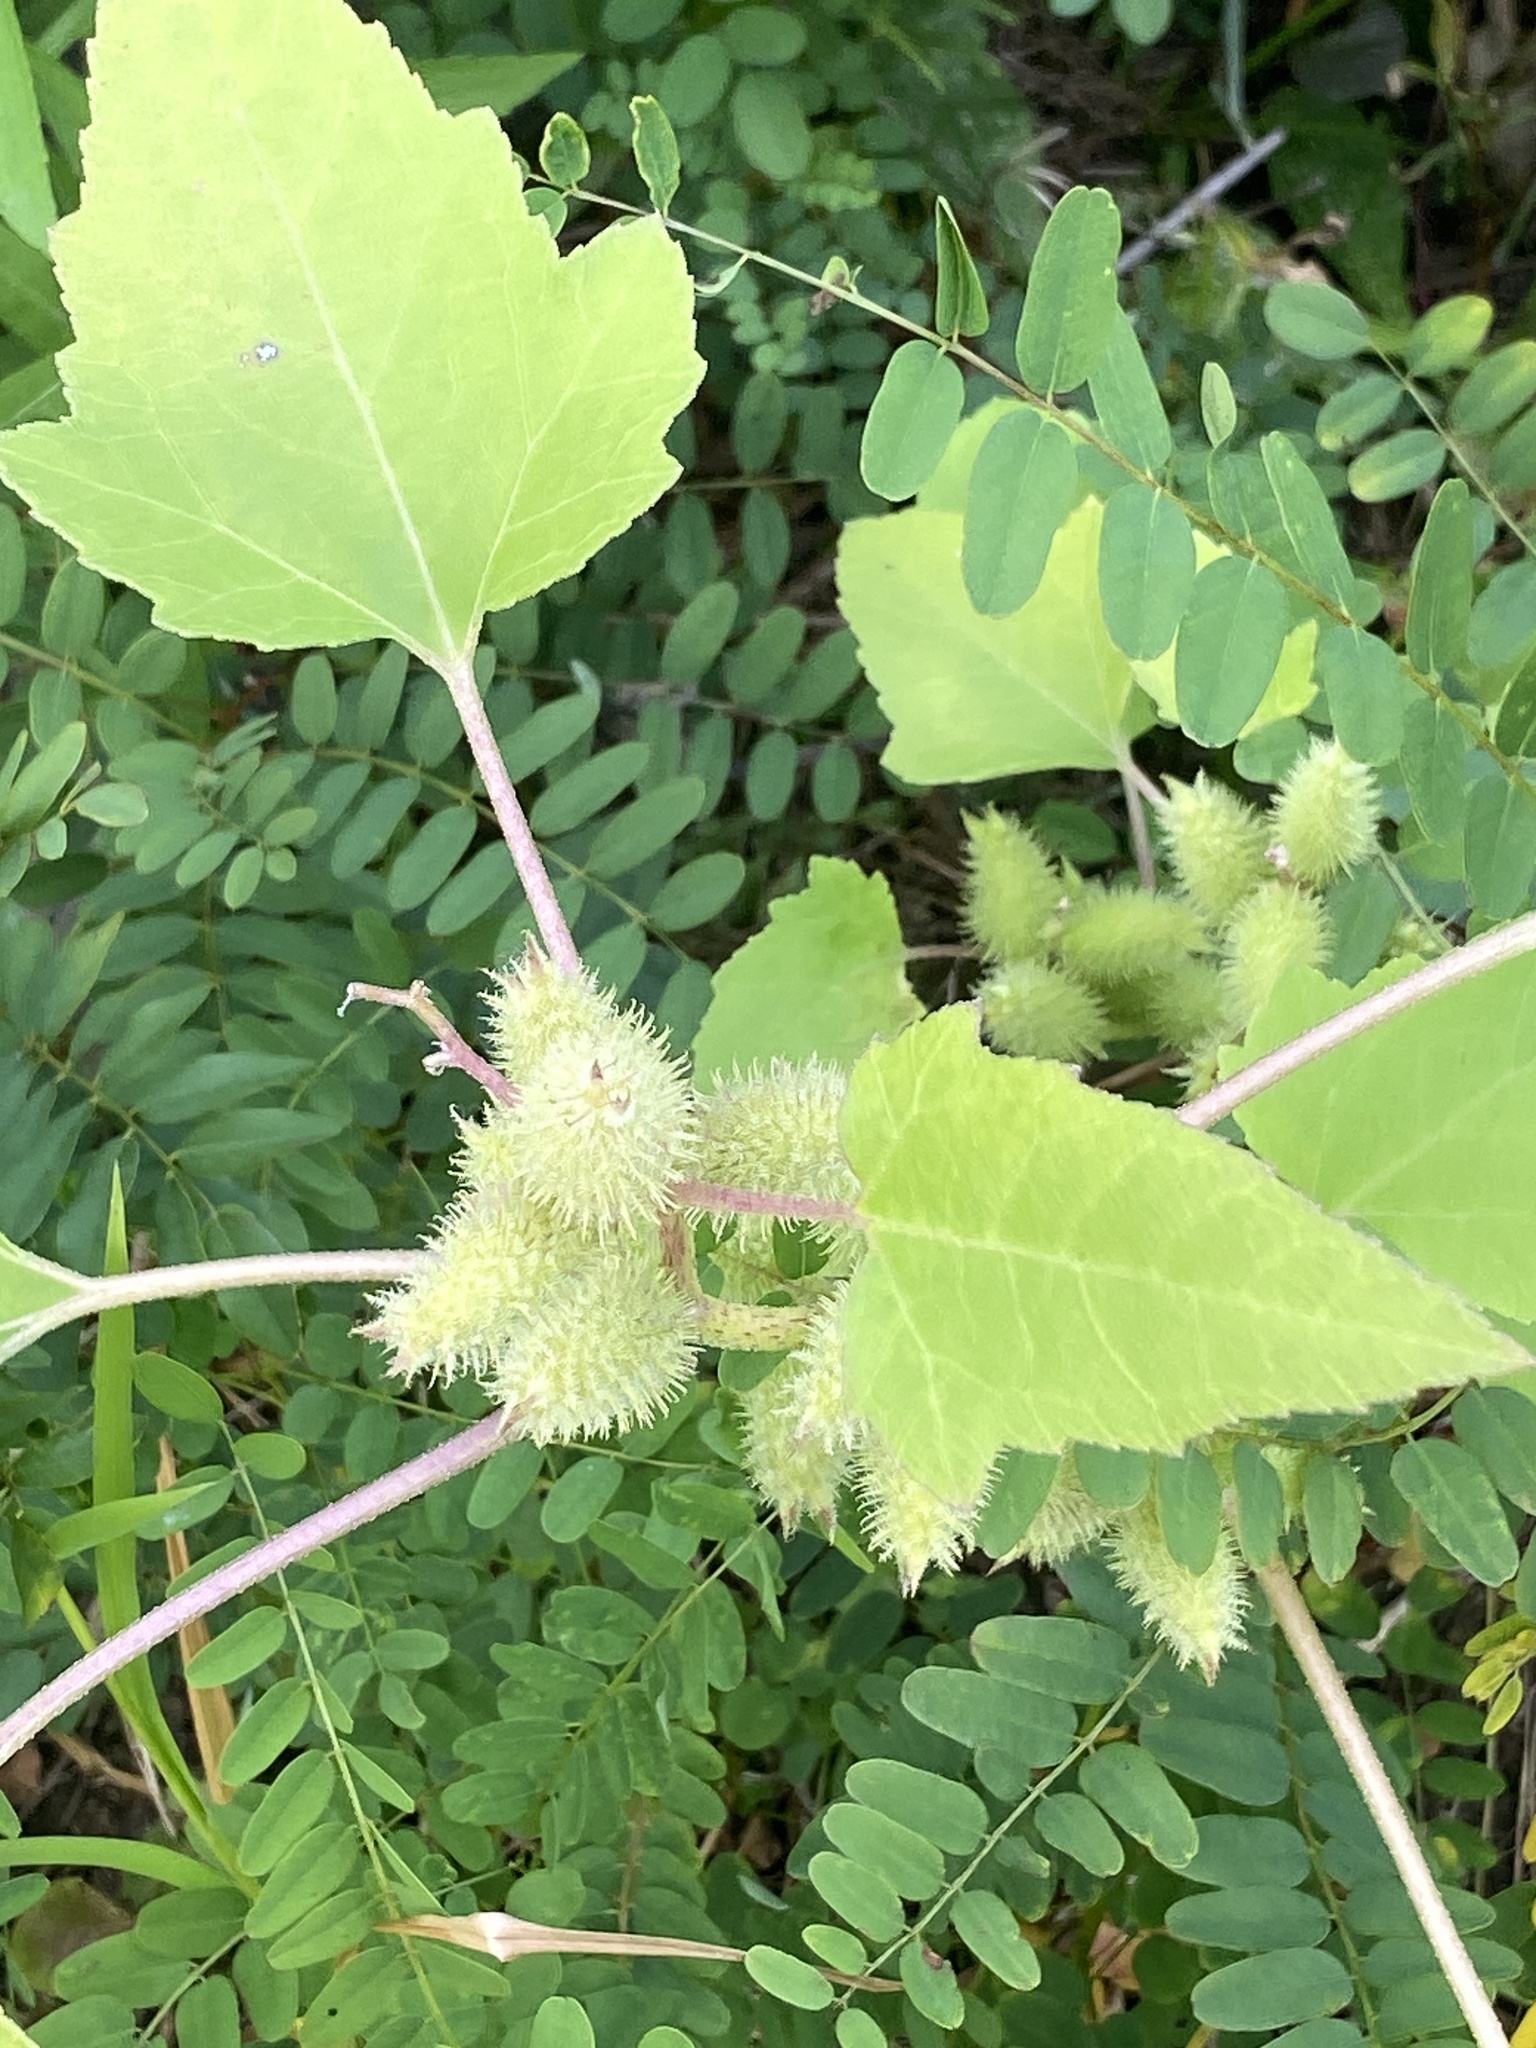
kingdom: Plantae
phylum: Tracheophyta
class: Magnoliopsida
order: Asterales
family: Asteraceae
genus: Xanthium
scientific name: Xanthium strumarium
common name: Rough cocklebur
